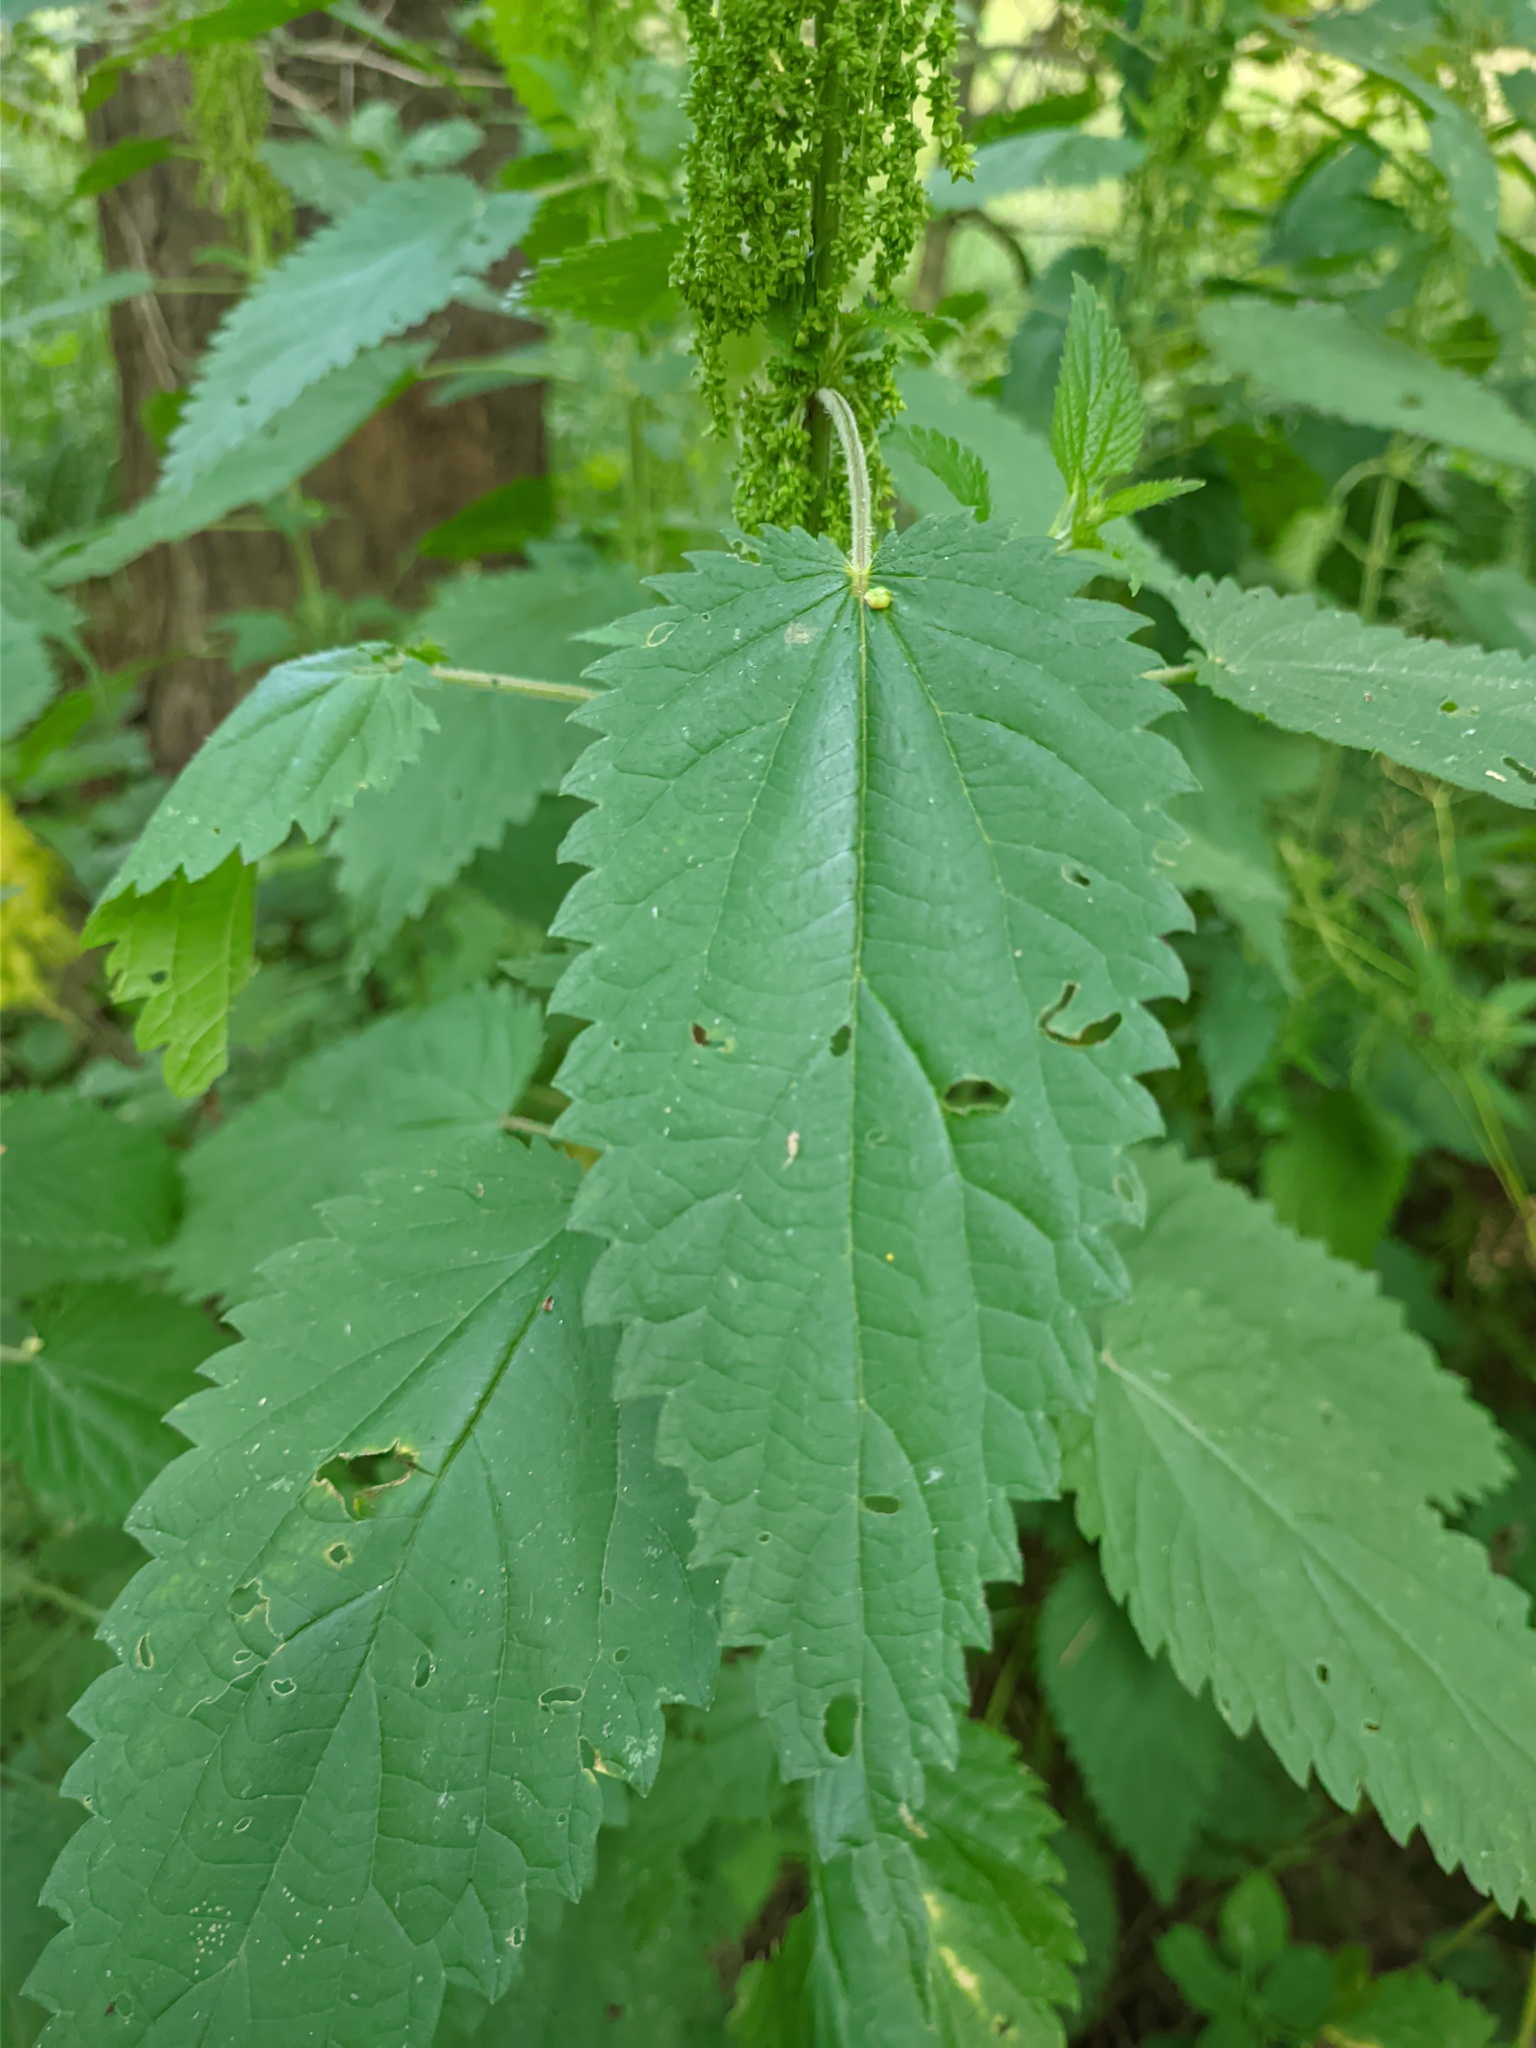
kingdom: Plantae
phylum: Tracheophyta
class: Magnoliopsida
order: Rosales
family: Urticaceae
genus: Urtica
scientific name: Urtica dioica
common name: Common nettle
